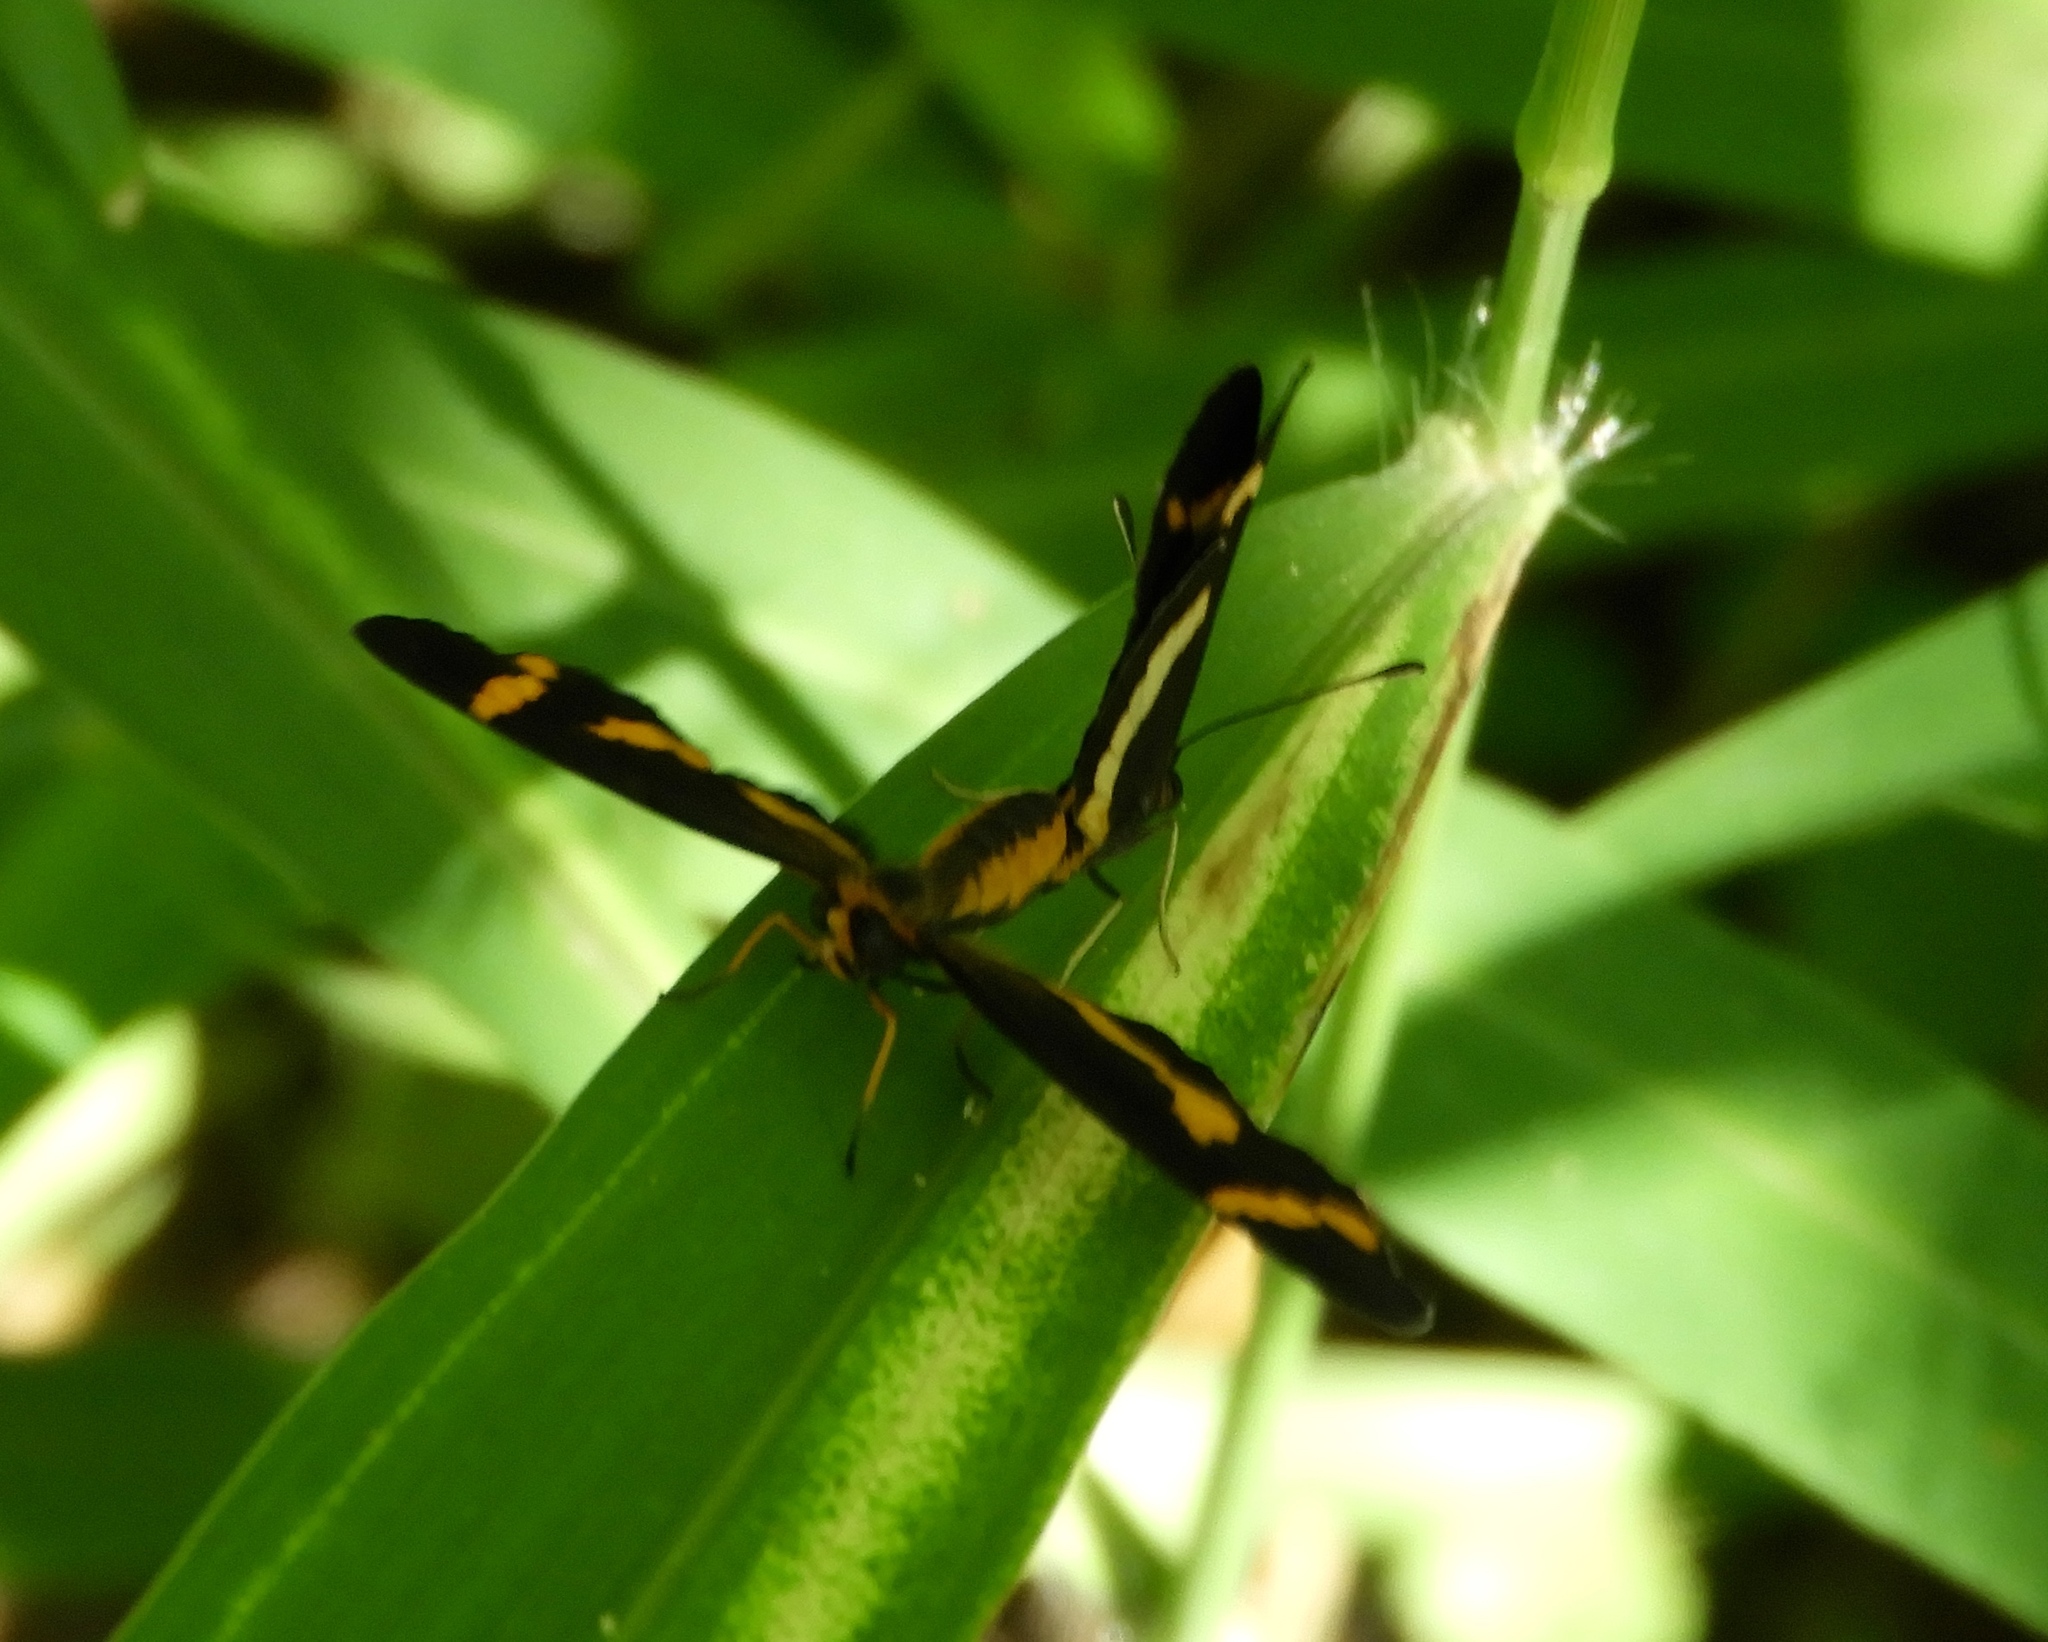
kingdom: Animalia
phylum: Arthropoda
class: Insecta
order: Lepidoptera
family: Nymphalidae
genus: Microtia
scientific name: Microtia elva
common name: Elf
